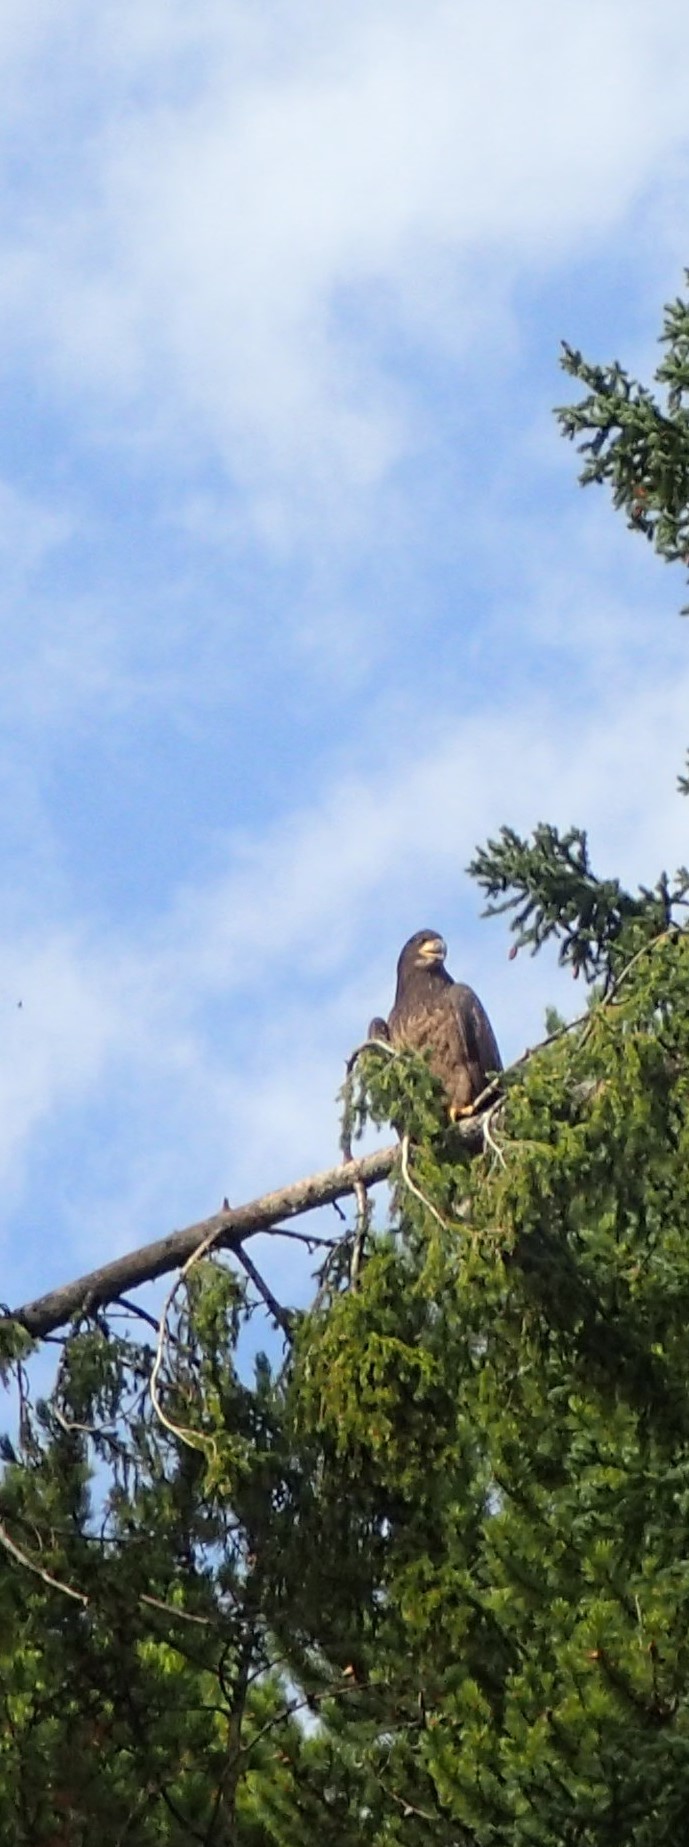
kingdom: Animalia
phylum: Chordata
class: Aves
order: Accipitriformes
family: Accipitridae
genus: Haliaeetus
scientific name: Haliaeetus leucocephalus
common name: Bald eagle
